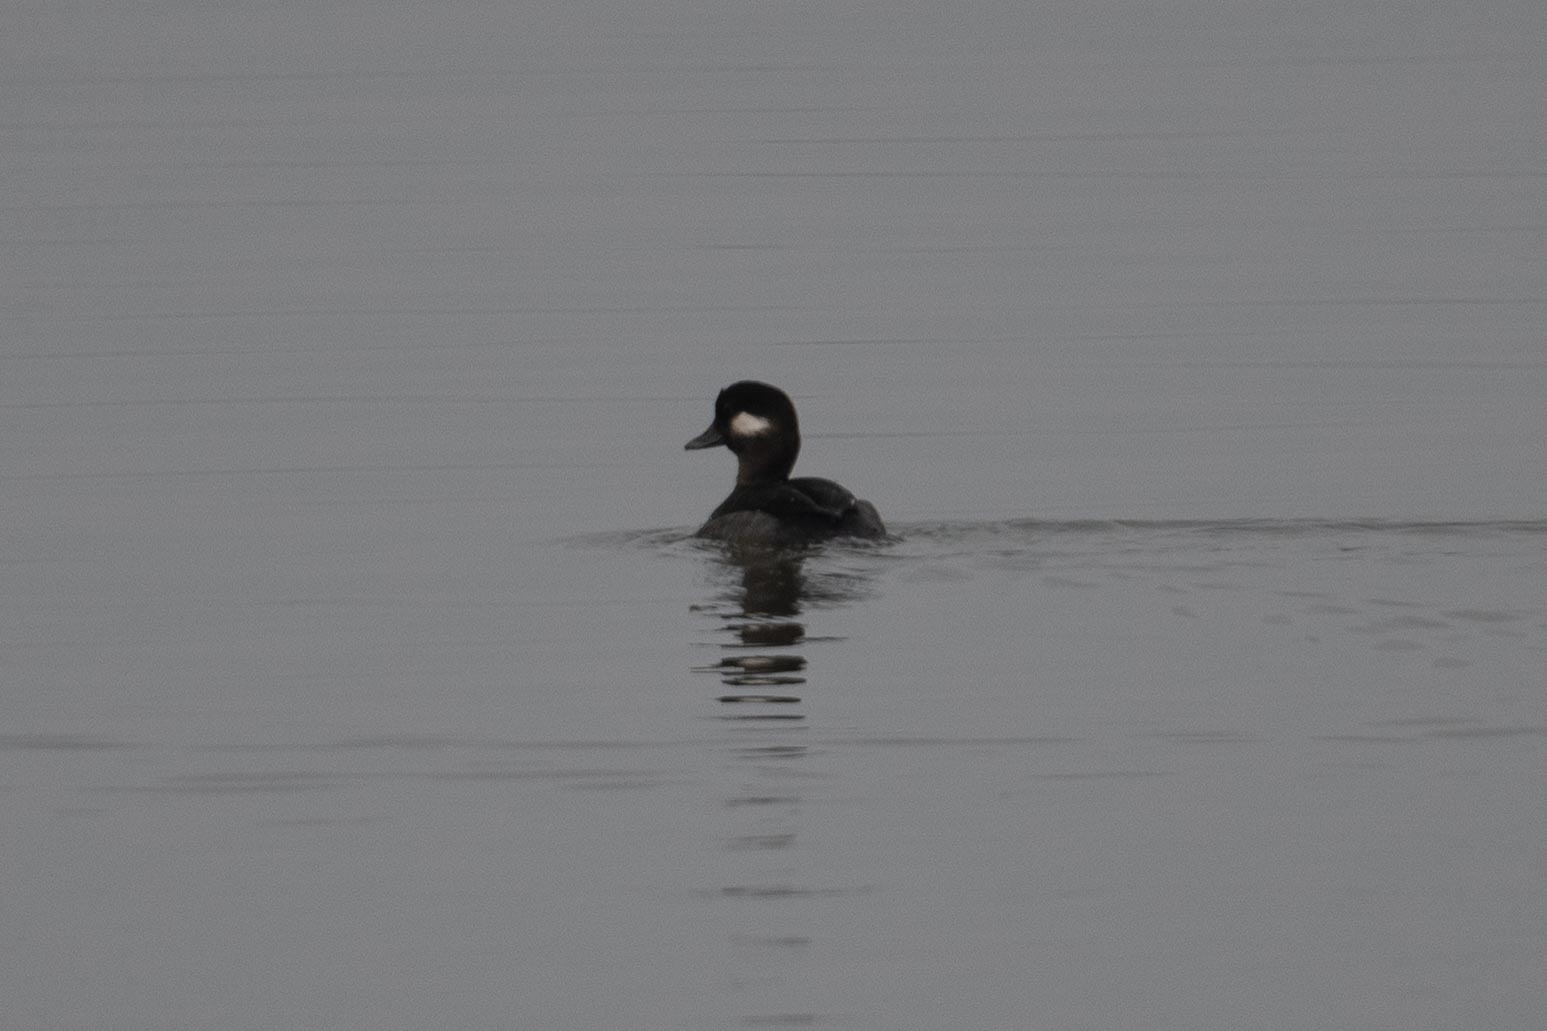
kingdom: Animalia
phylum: Chordata
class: Aves
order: Anseriformes
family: Anatidae
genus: Bucephala
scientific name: Bucephala albeola
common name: Bufflehead
